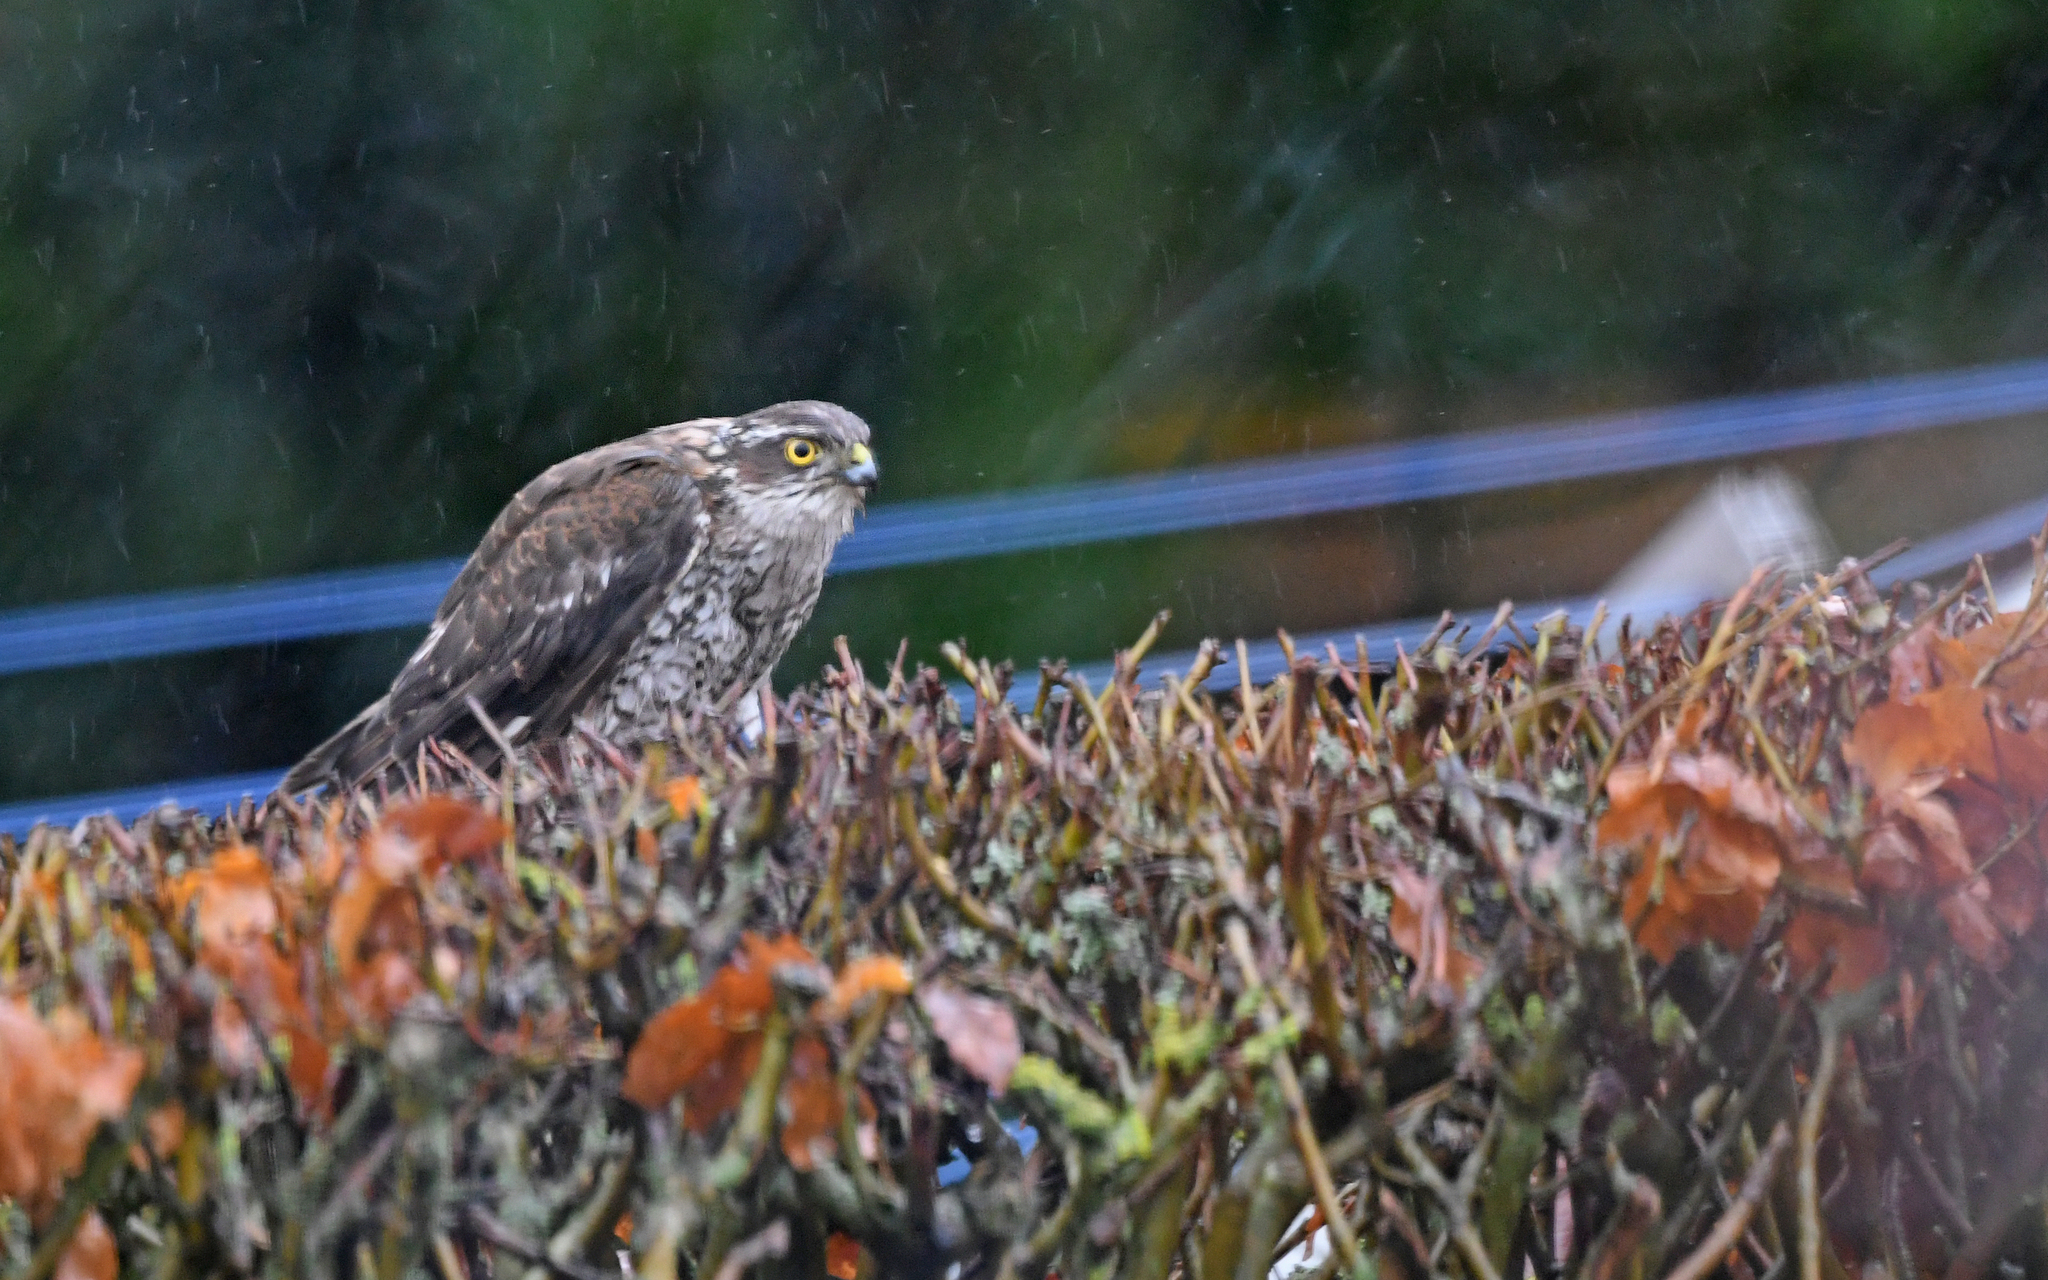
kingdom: Animalia
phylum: Chordata
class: Aves
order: Accipitriformes
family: Accipitridae
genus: Accipiter
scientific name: Accipiter nisus
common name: Eurasian sparrowhawk
